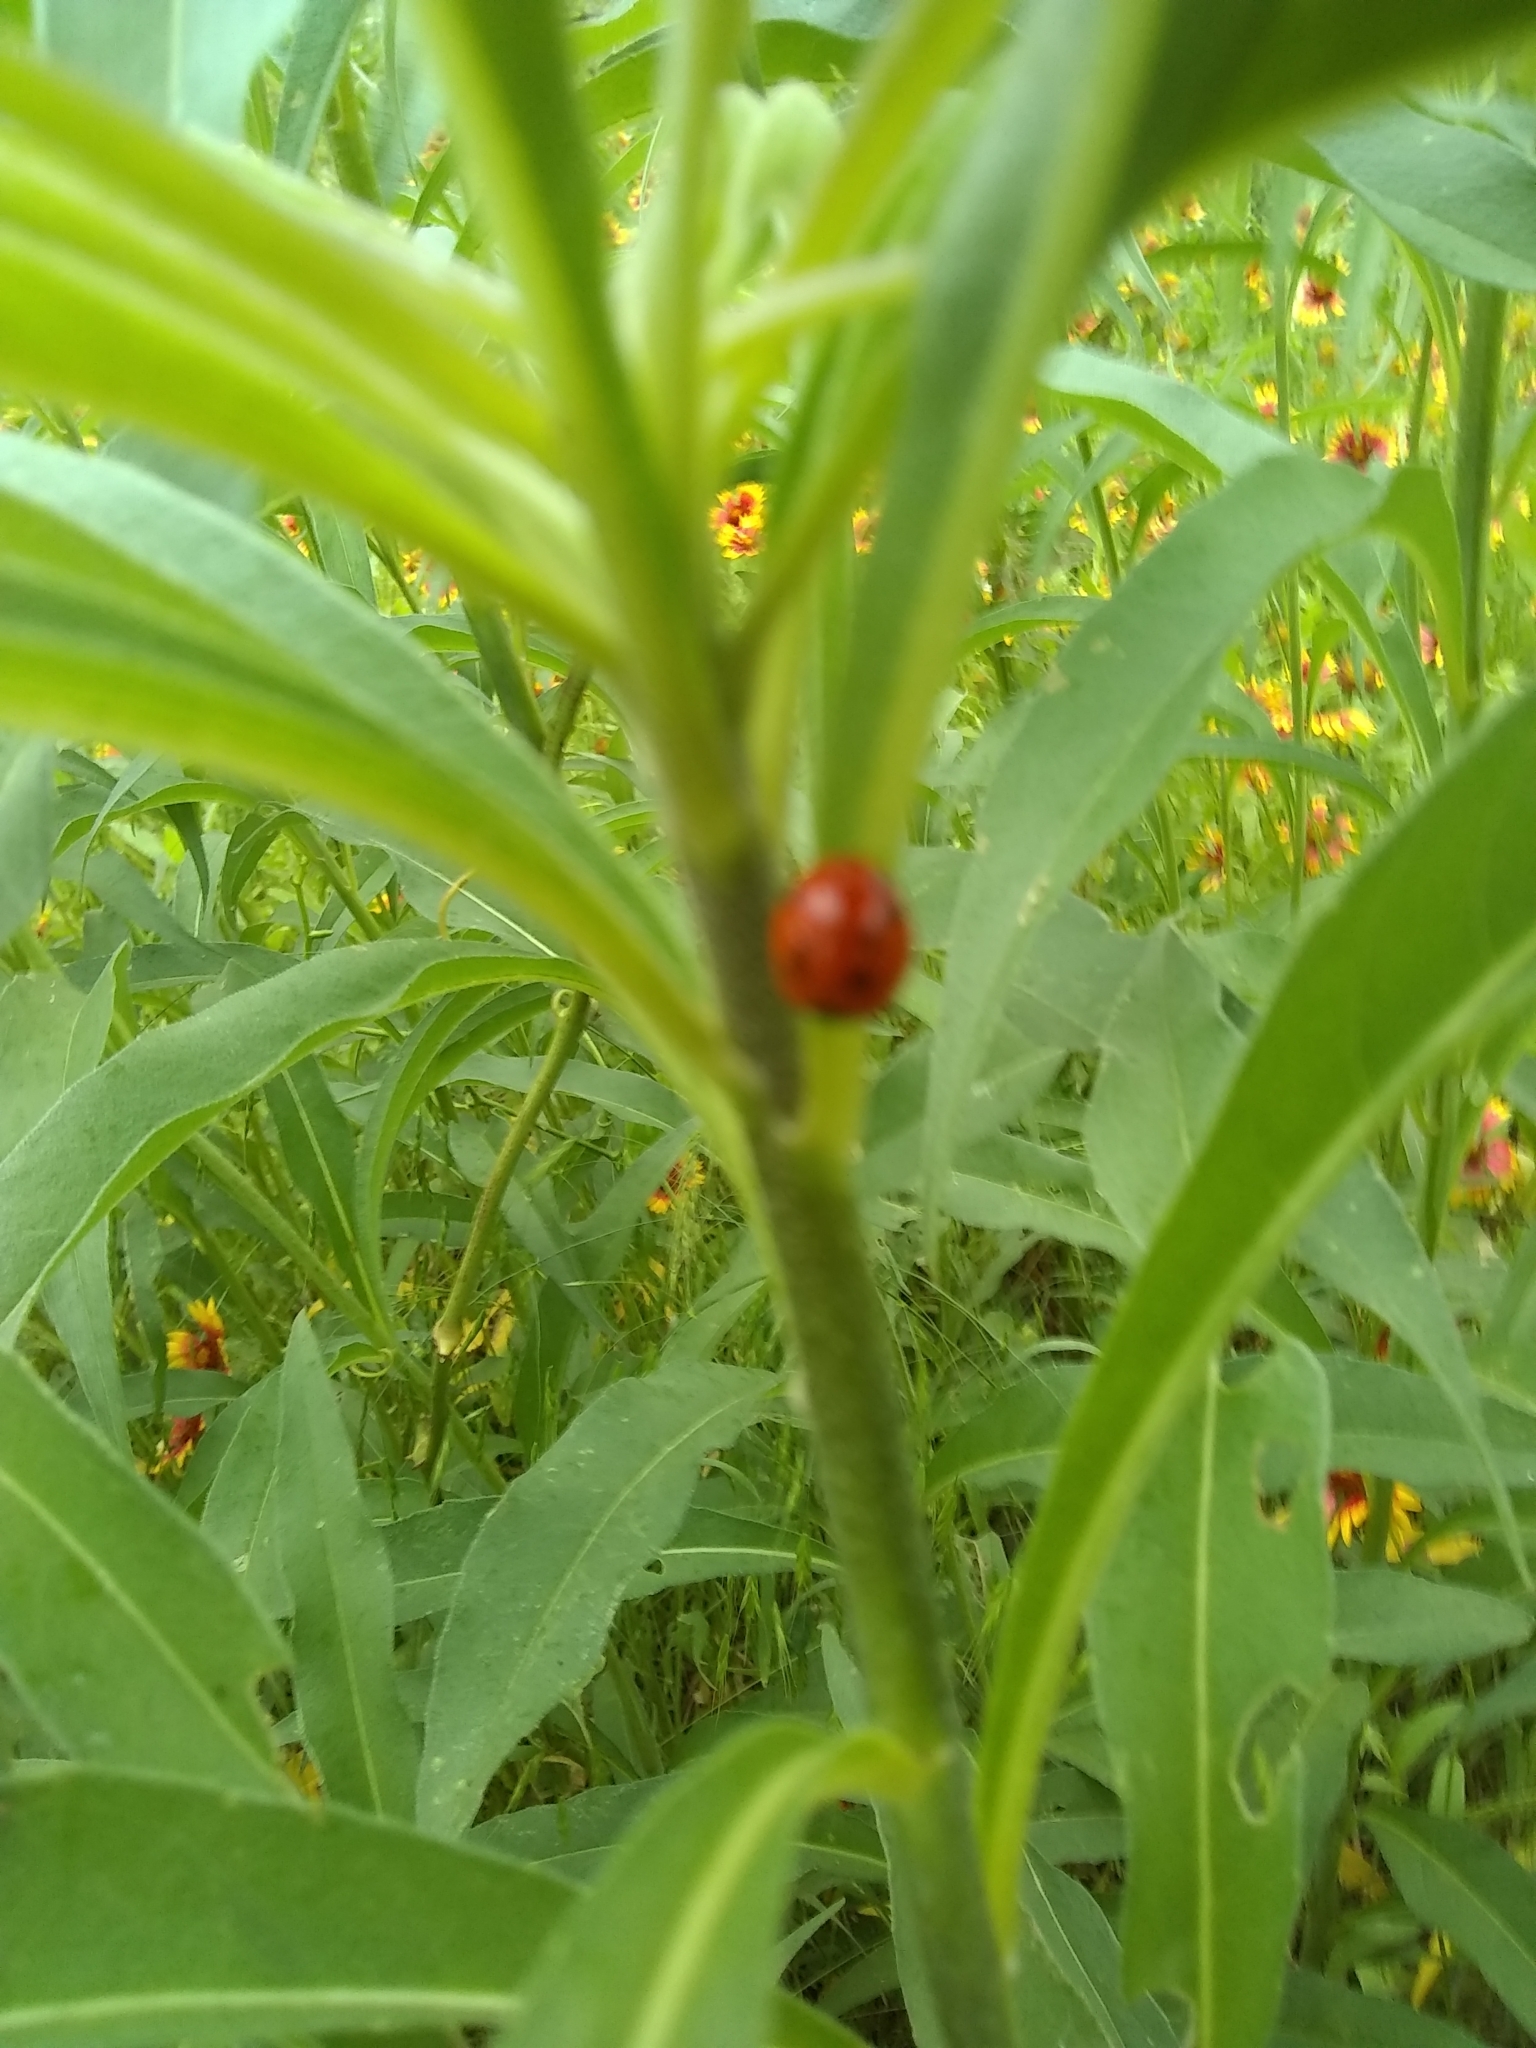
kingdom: Animalia
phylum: Arthropoda
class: Insecta
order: Coleoptera
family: Coccinellidae
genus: Coccinella
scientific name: Coccinella septempunctata
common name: Sevenspotted lady beetle
